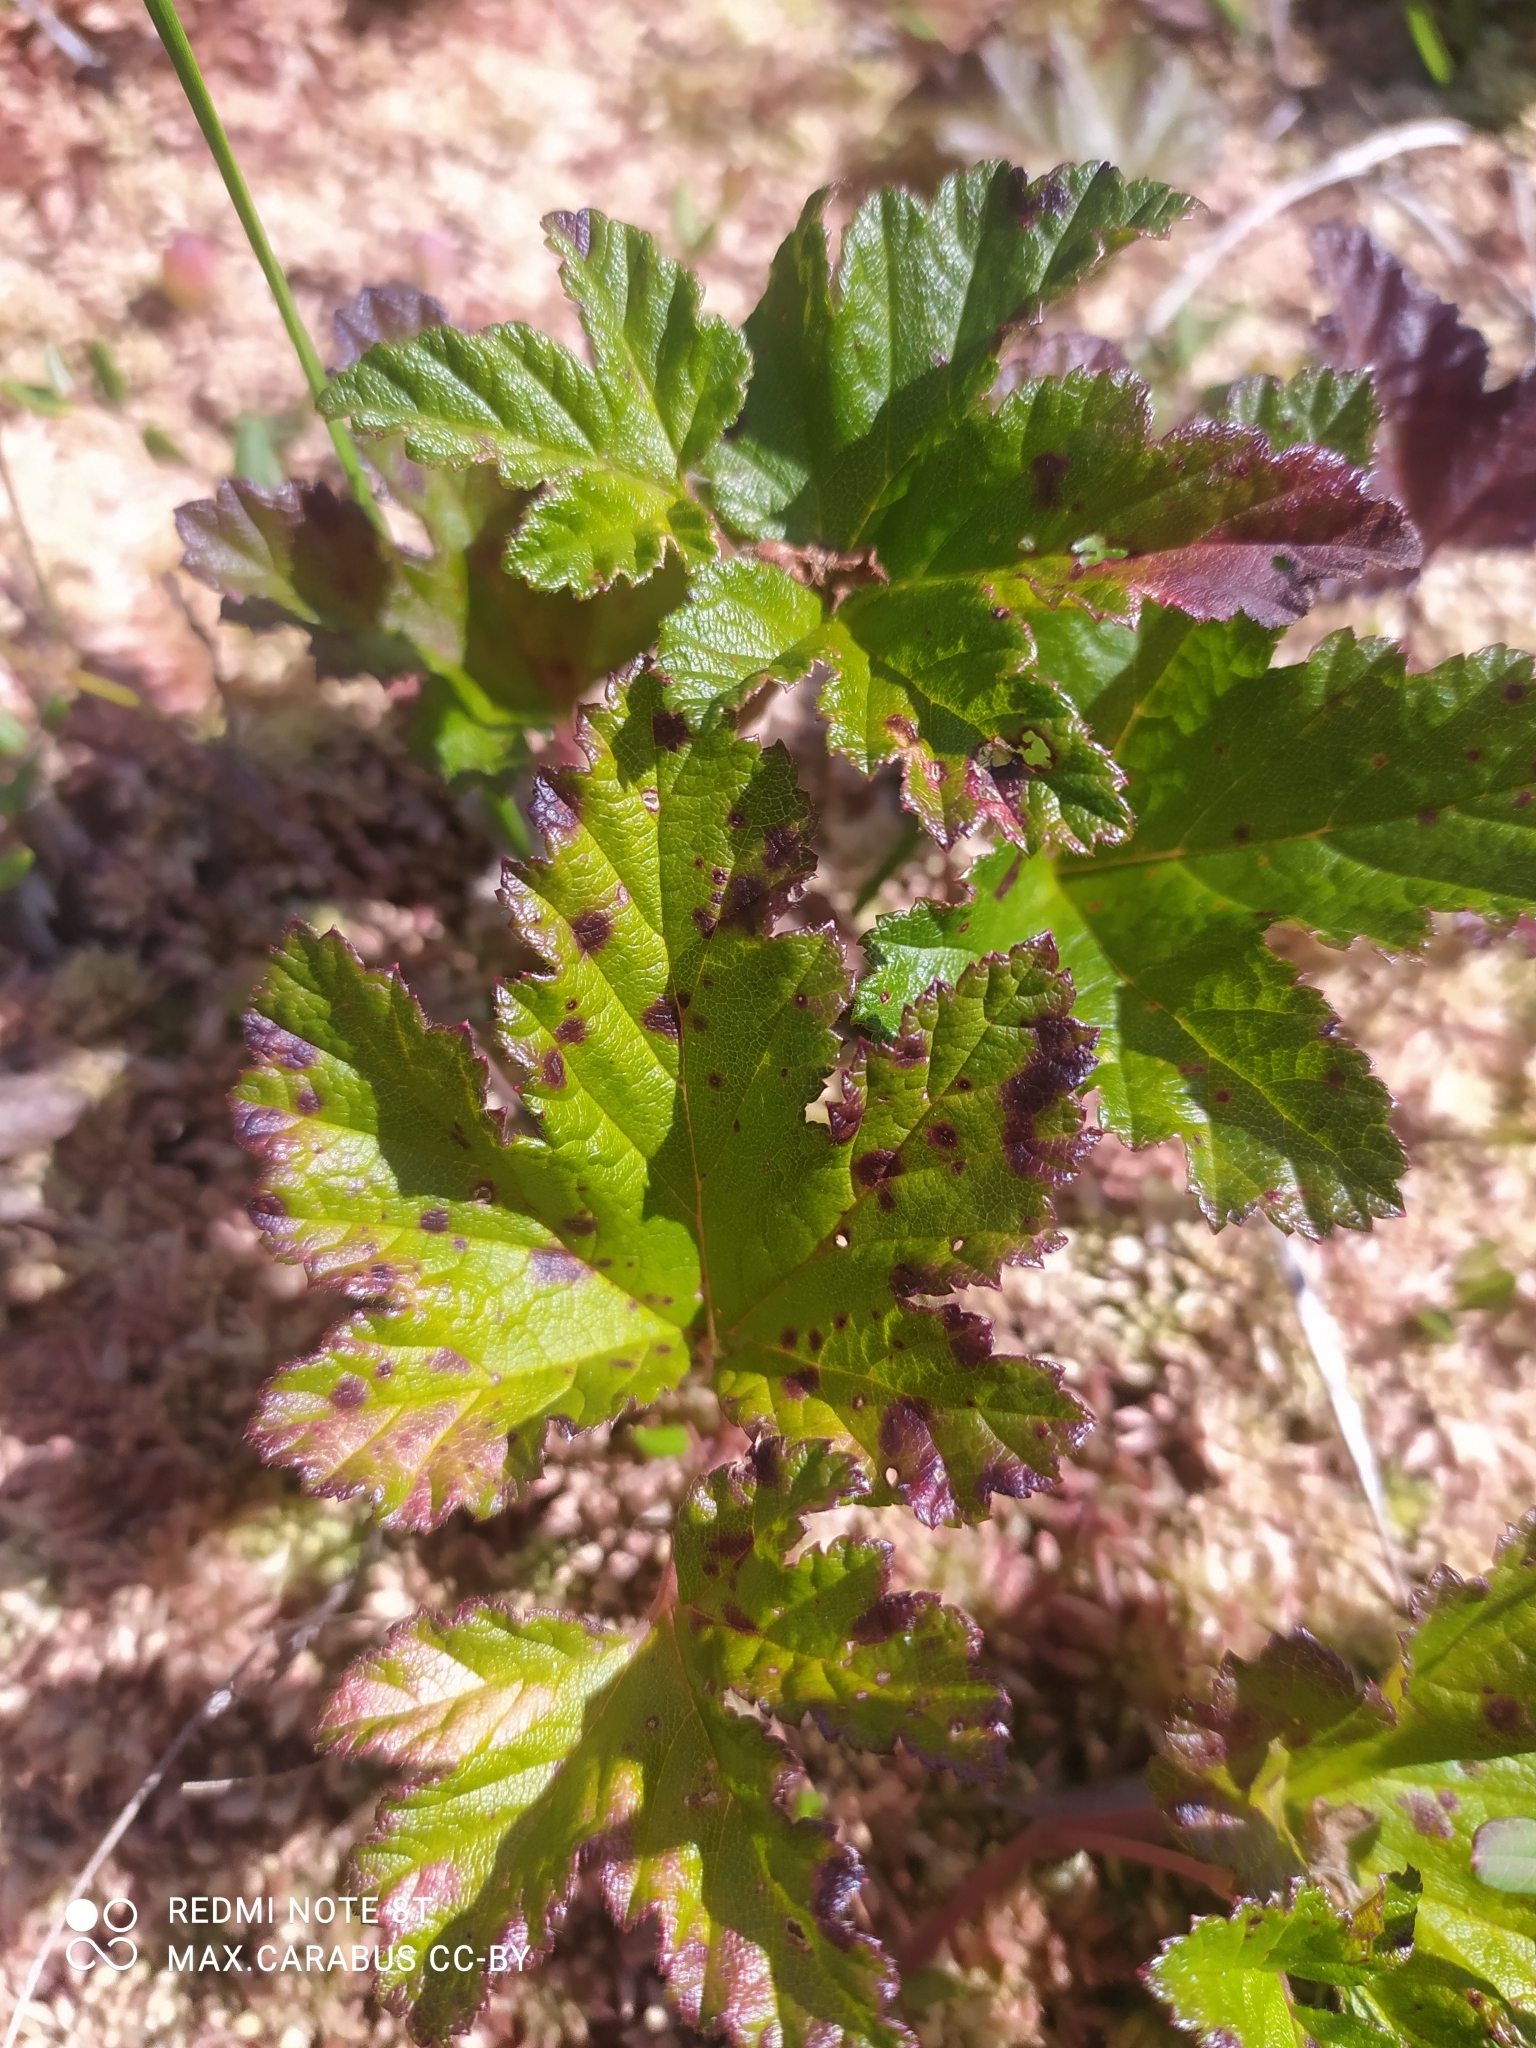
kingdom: Plantae
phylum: Tracheophyta
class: Magnoliopsida
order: Rosales
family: Rosaceae
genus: Rubus
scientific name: Rubus chamaemorus
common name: Cloudberry
